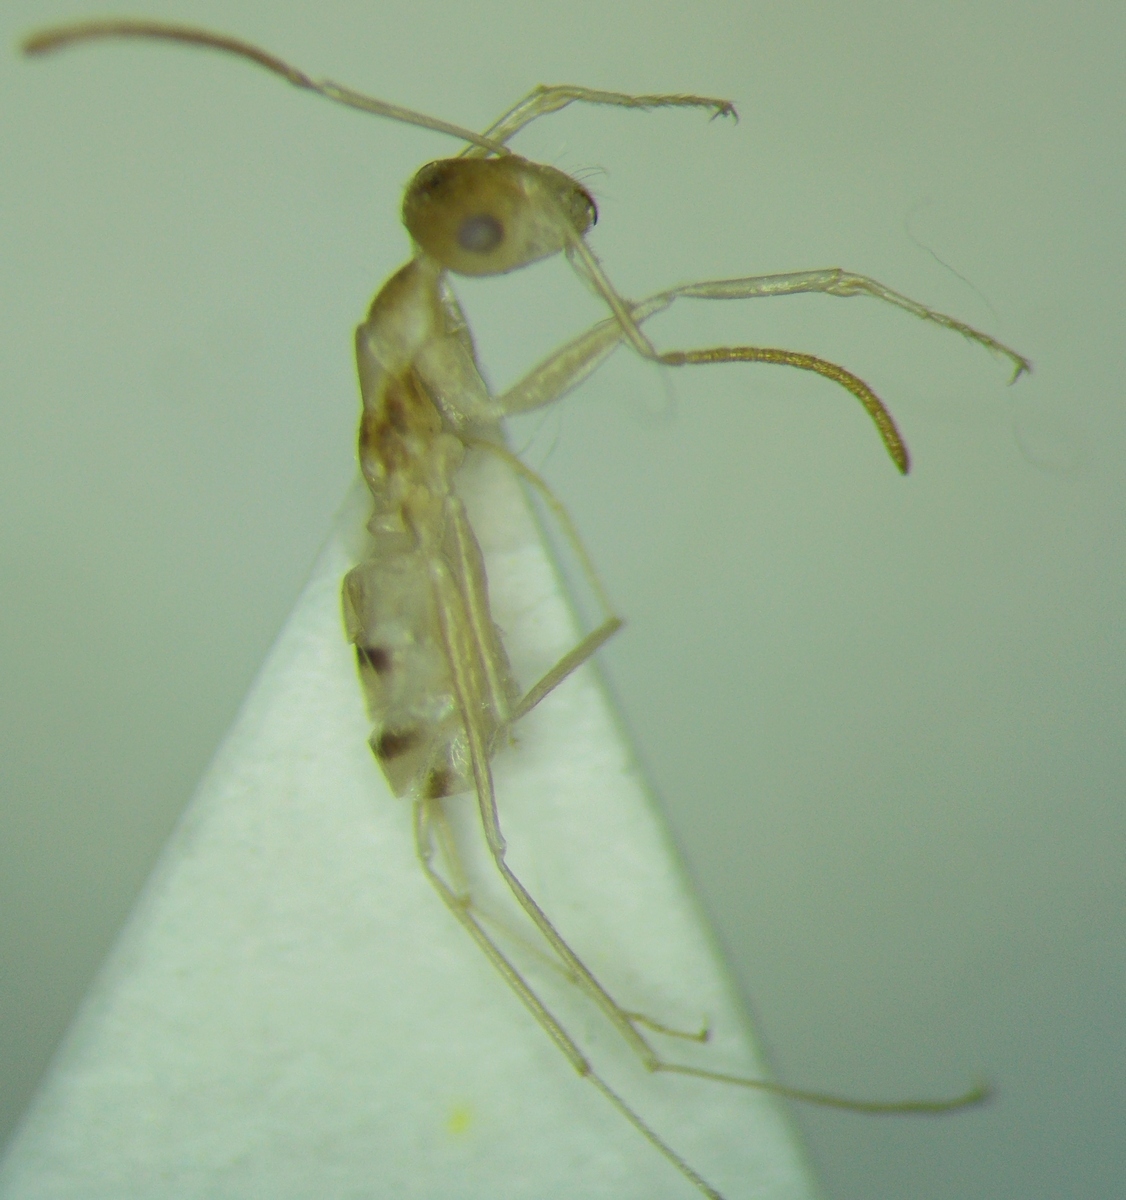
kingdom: Animalia
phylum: Arthropoda
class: Insecta
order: Hymenoptera
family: Formicidae
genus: Cataglyphis
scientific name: Cataglyphis pallidus
